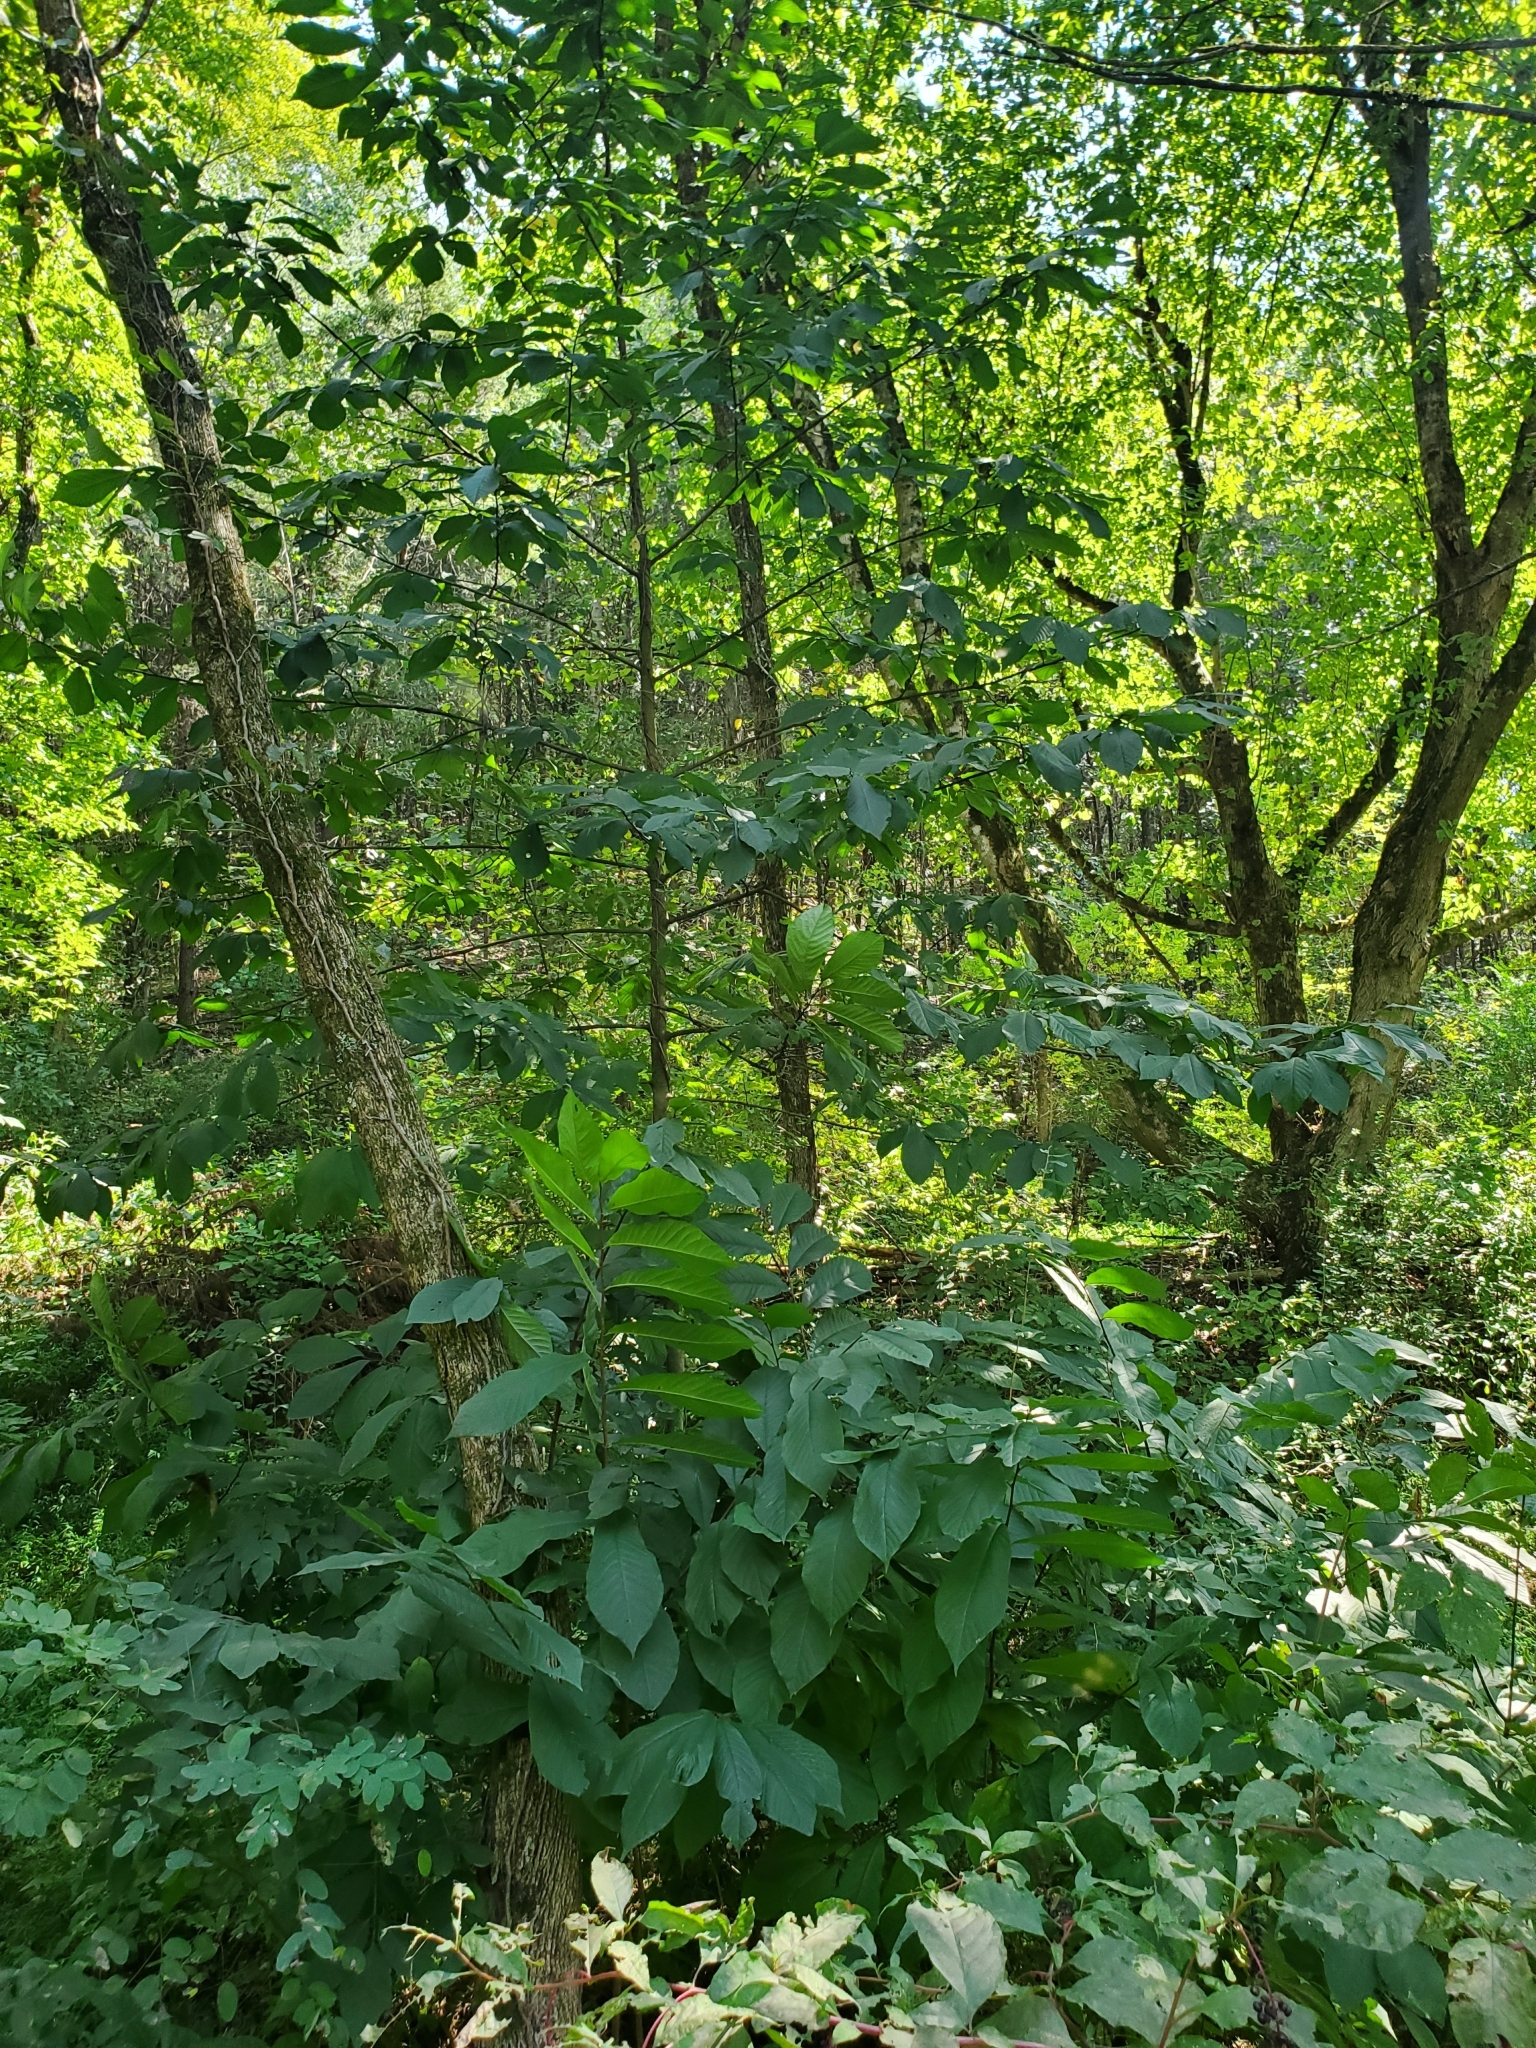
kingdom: Plantae
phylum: Tracheophyta
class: Magnoliopsida
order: Magnoliales
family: Annonaceae
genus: Asimina
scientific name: Asimina triloba
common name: Dog-banana
